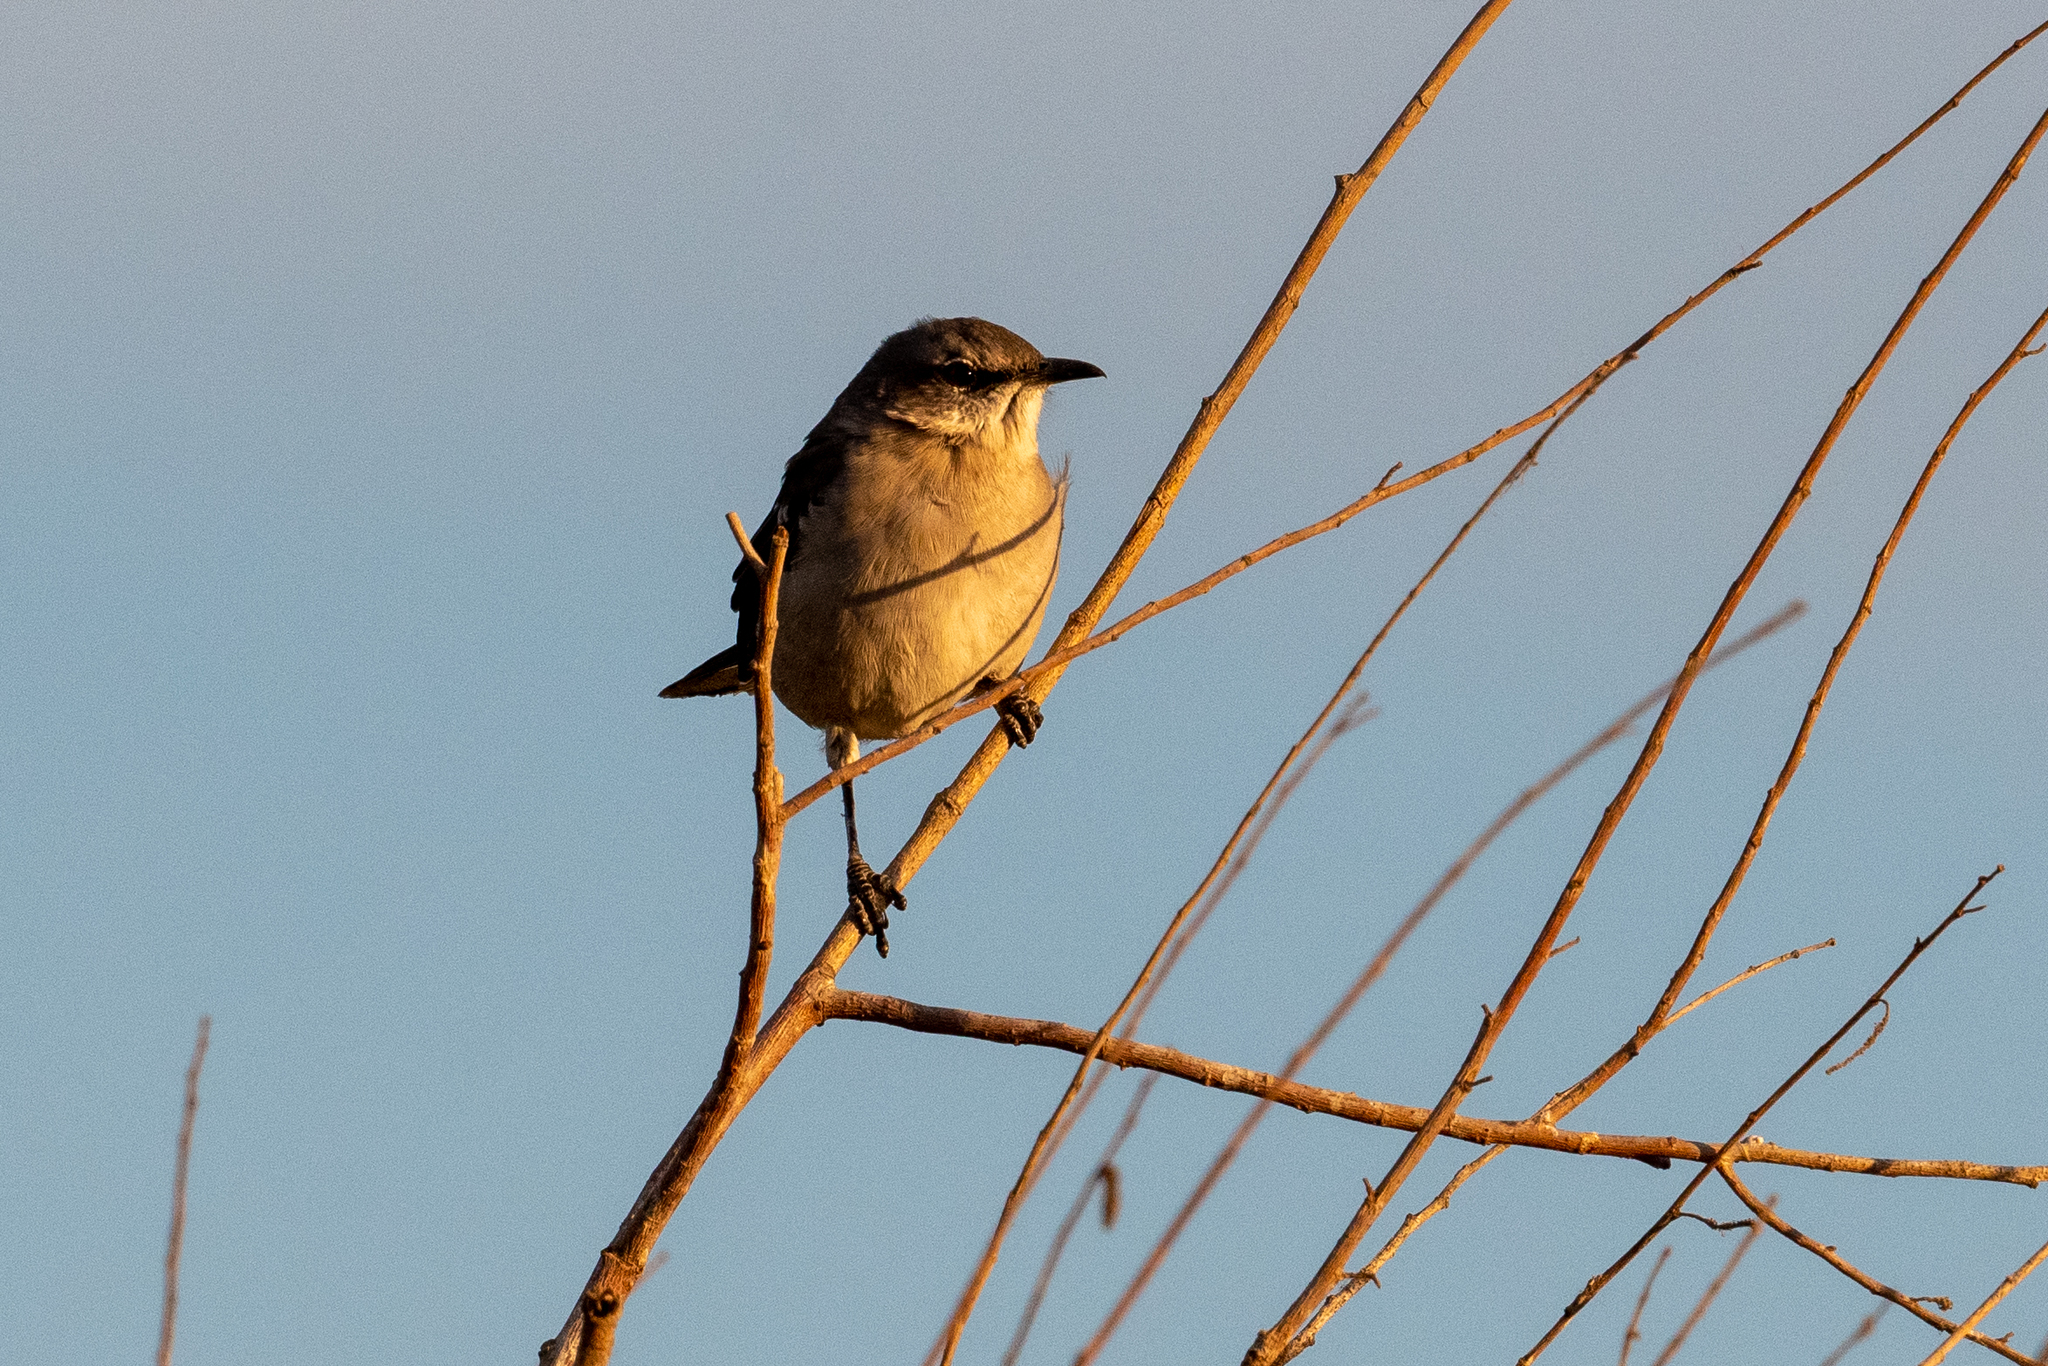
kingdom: Animalia
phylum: Chordata
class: Aves
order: Passeriformes
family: Mimidae
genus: Mimus
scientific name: Mimus polyglottos
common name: Northern mockingbird
